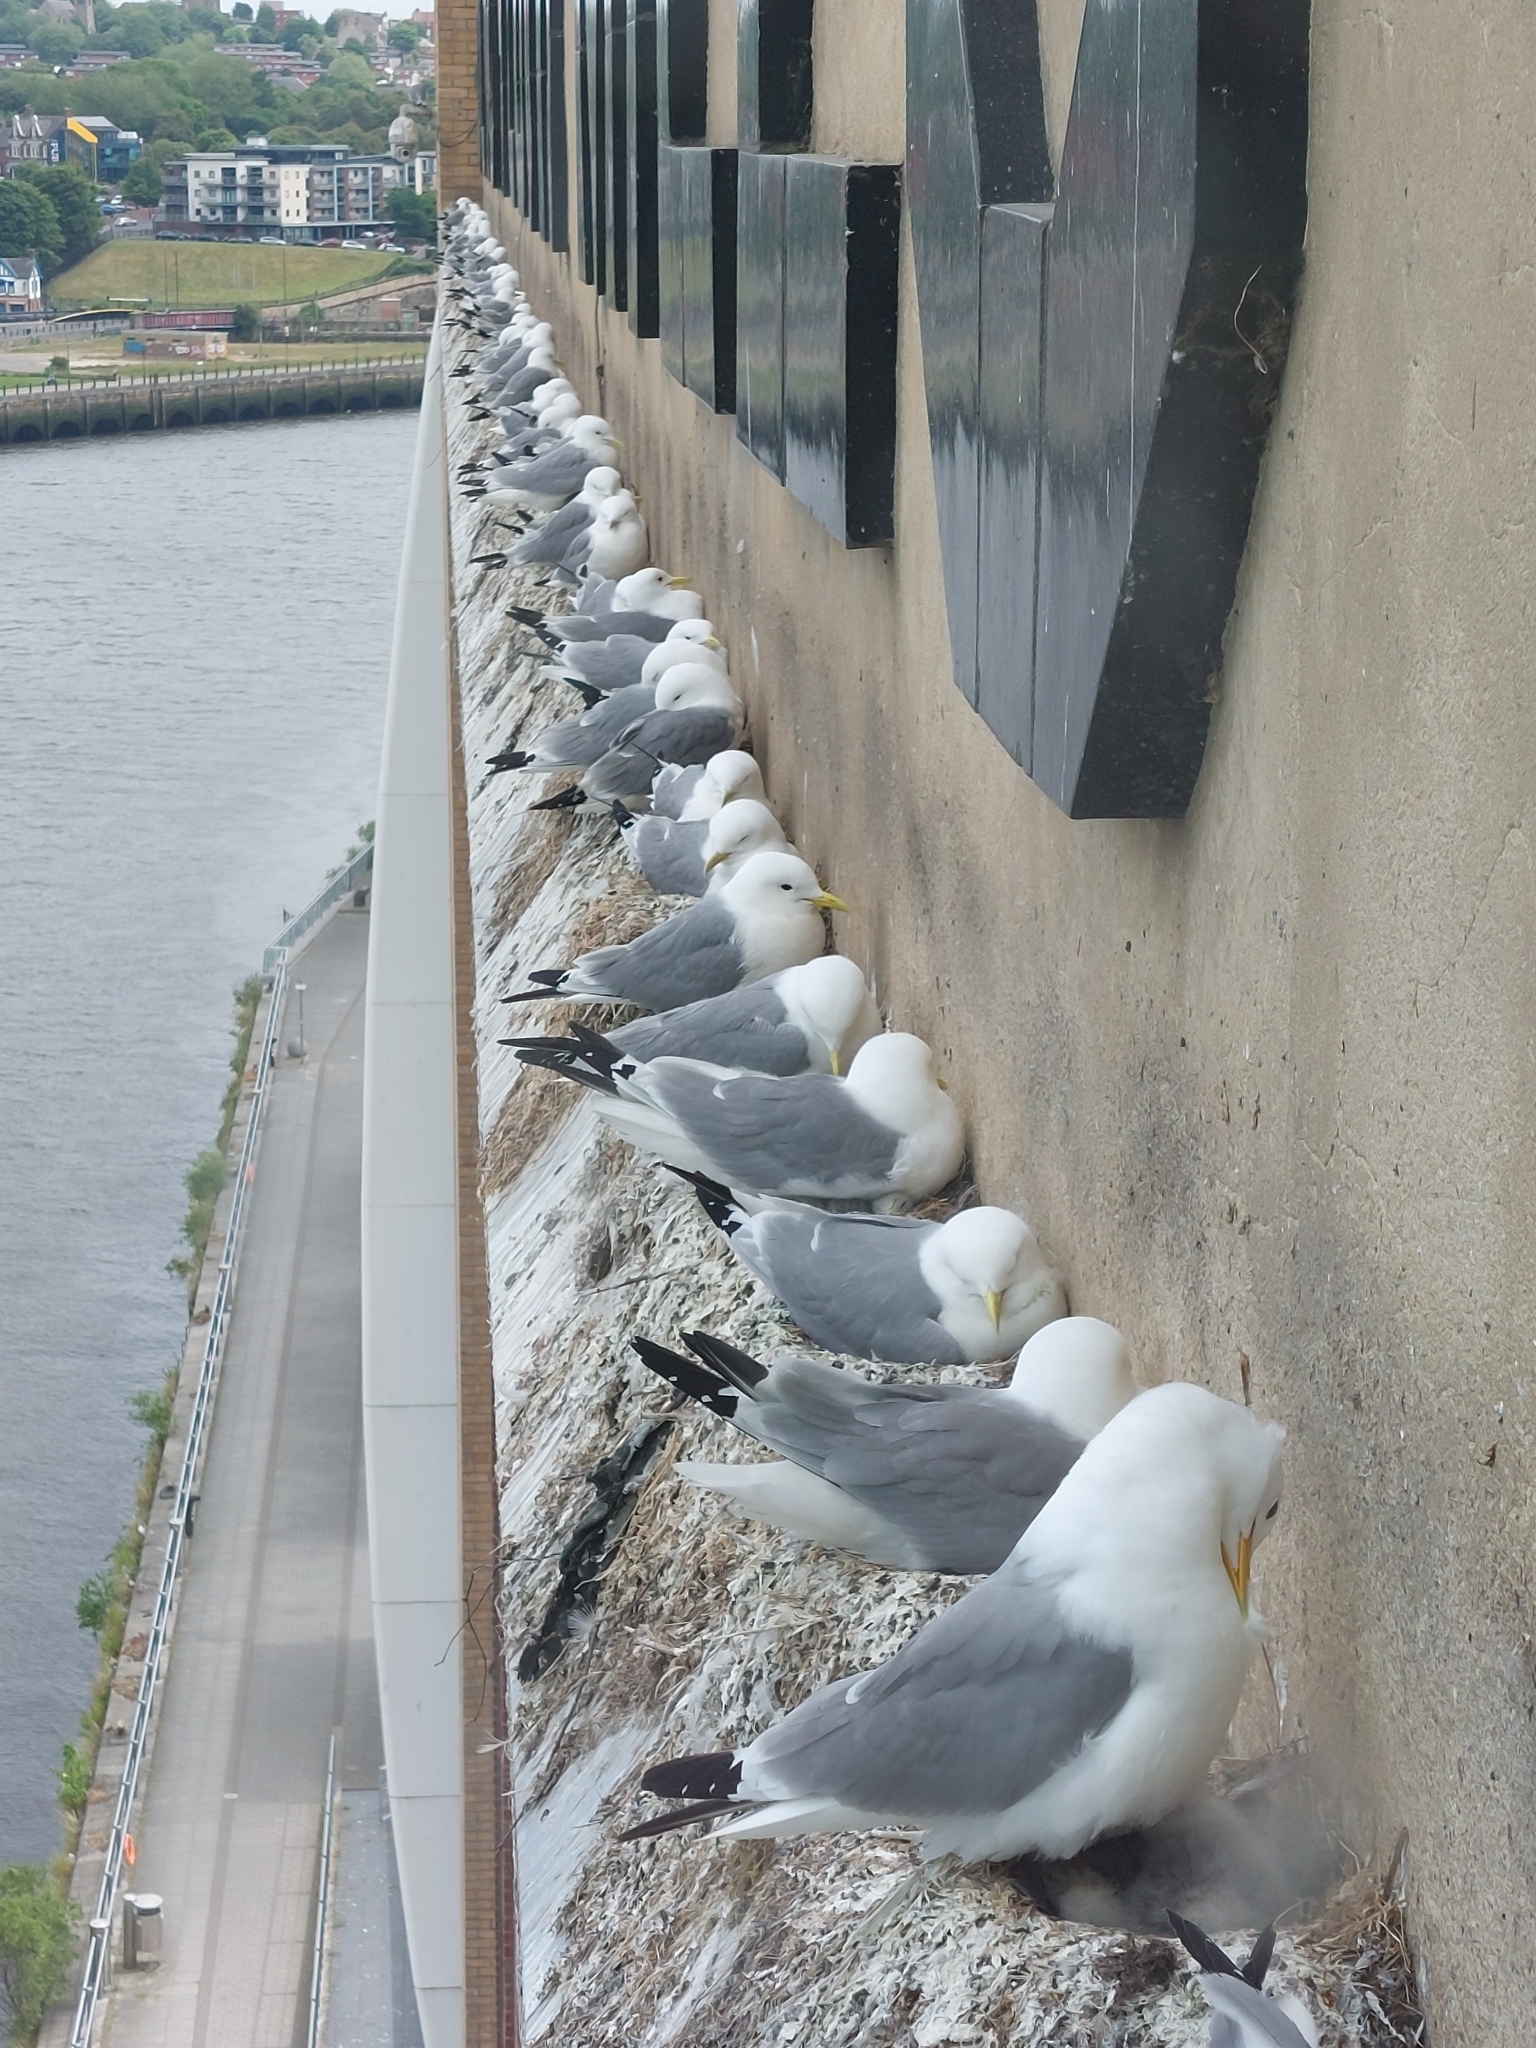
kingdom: Animalia
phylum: Chordata
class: Aves
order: Charadriiformes
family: Laridae
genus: Rissa
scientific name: Rissa tridactyla
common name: Black-legged kittiwake
